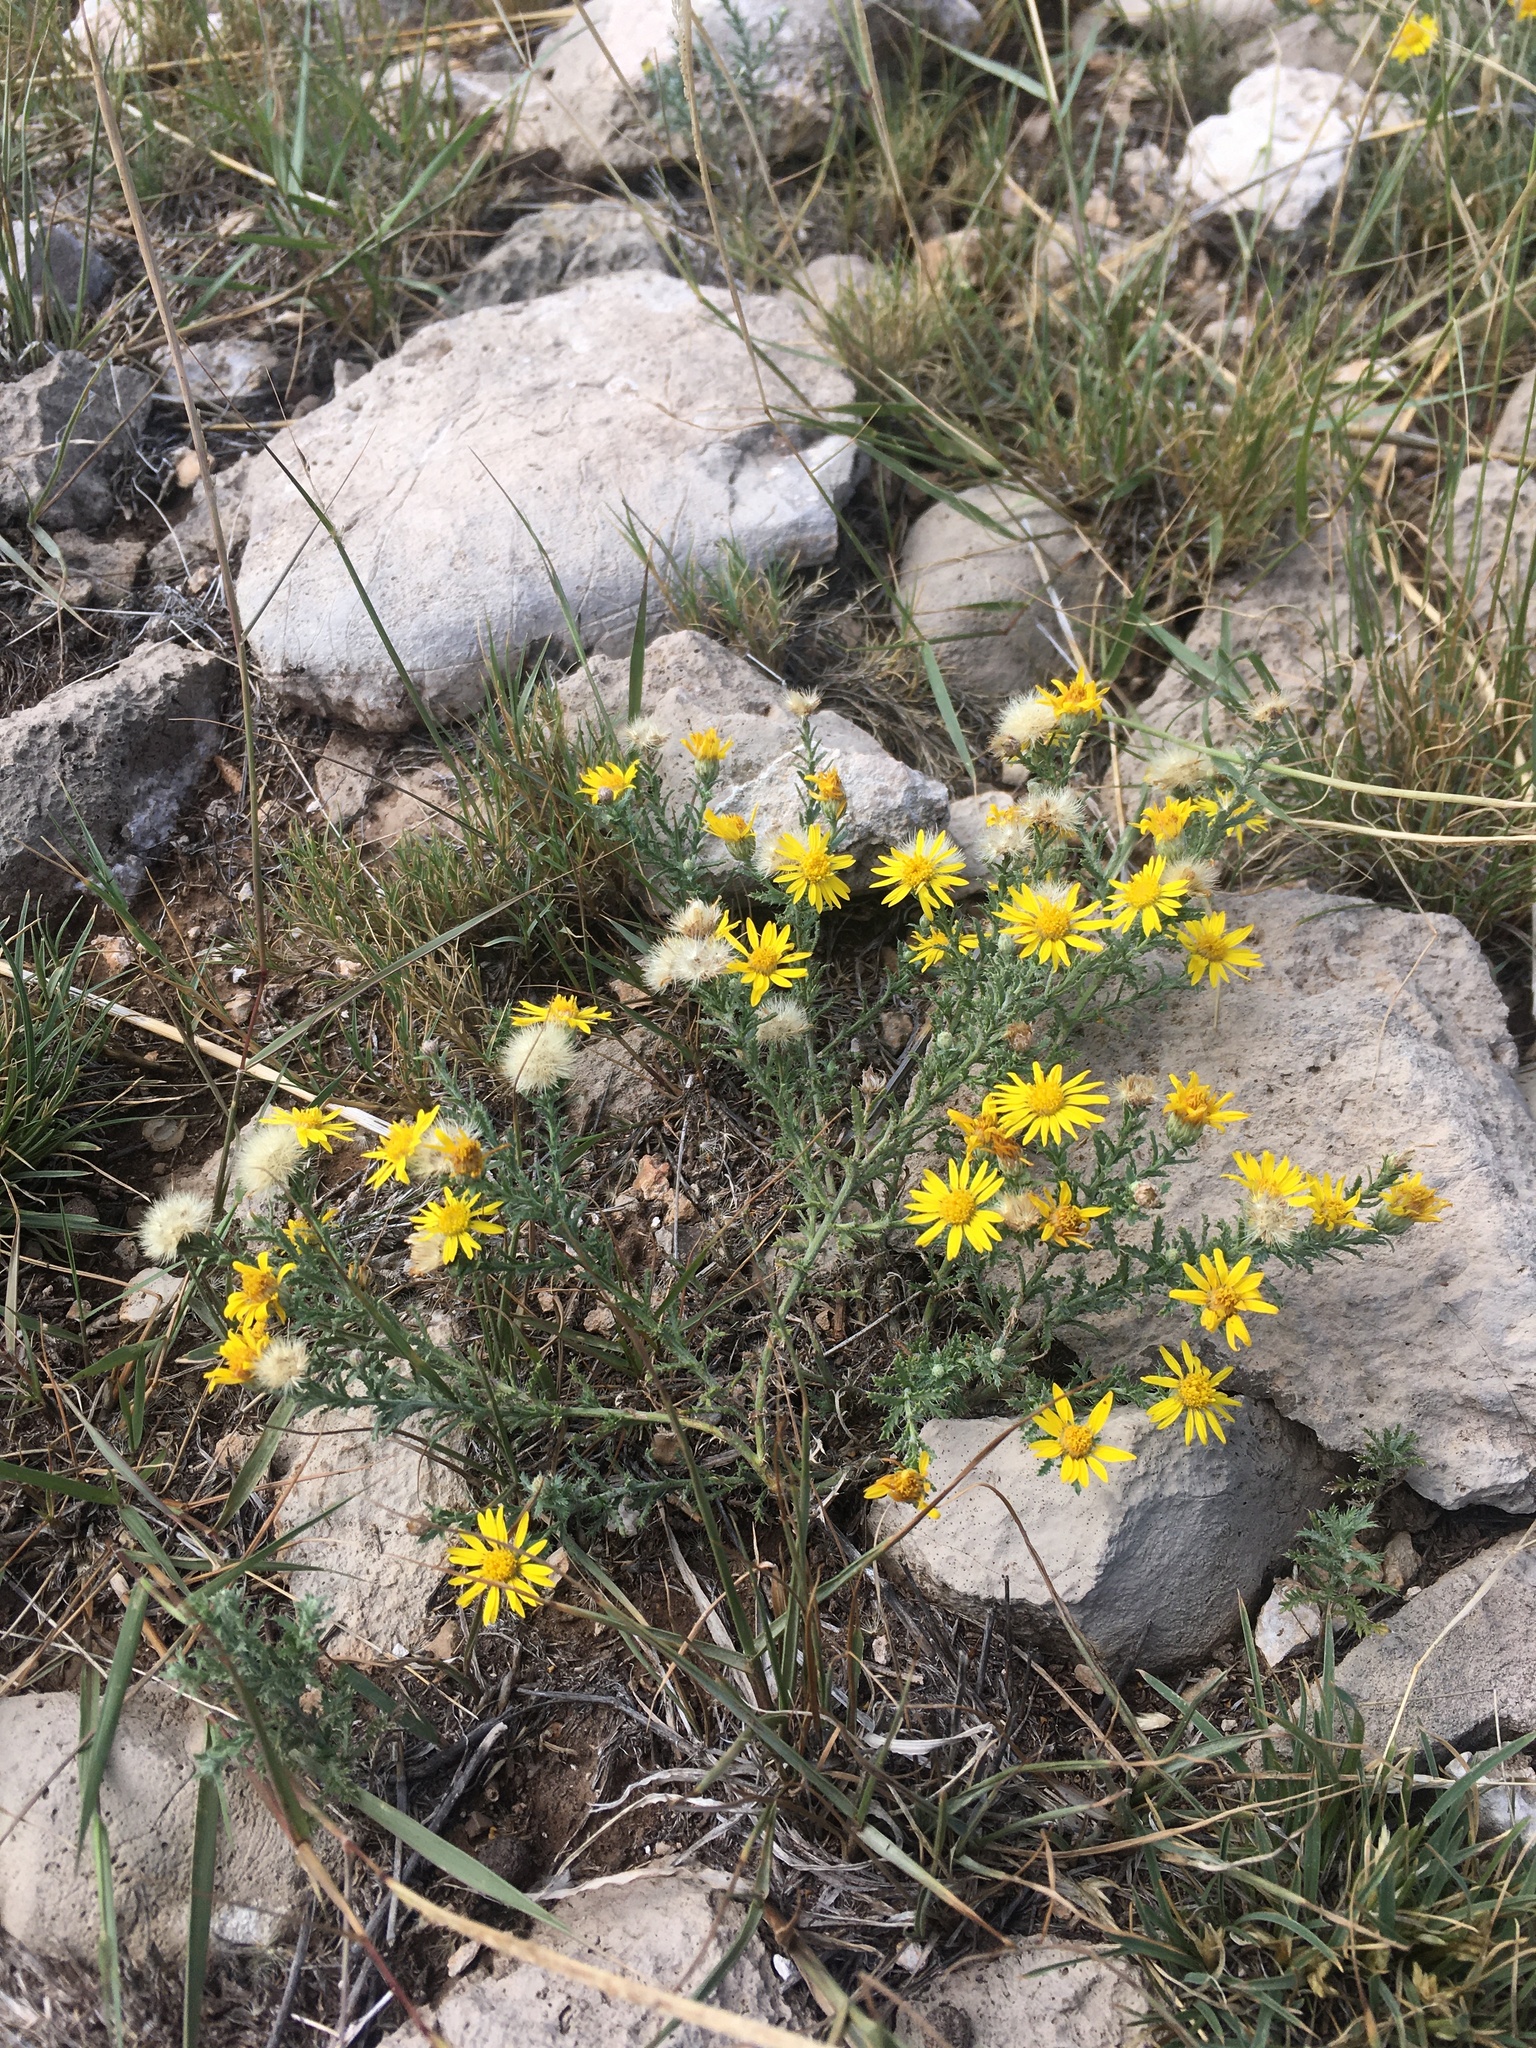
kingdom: Plantae
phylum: Tracheophyta
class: Magnoliopsida
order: Asterales
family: Asteraceae
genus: Xanthisma
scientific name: Xanthisma spinulosum
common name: Spiny goldenweed
